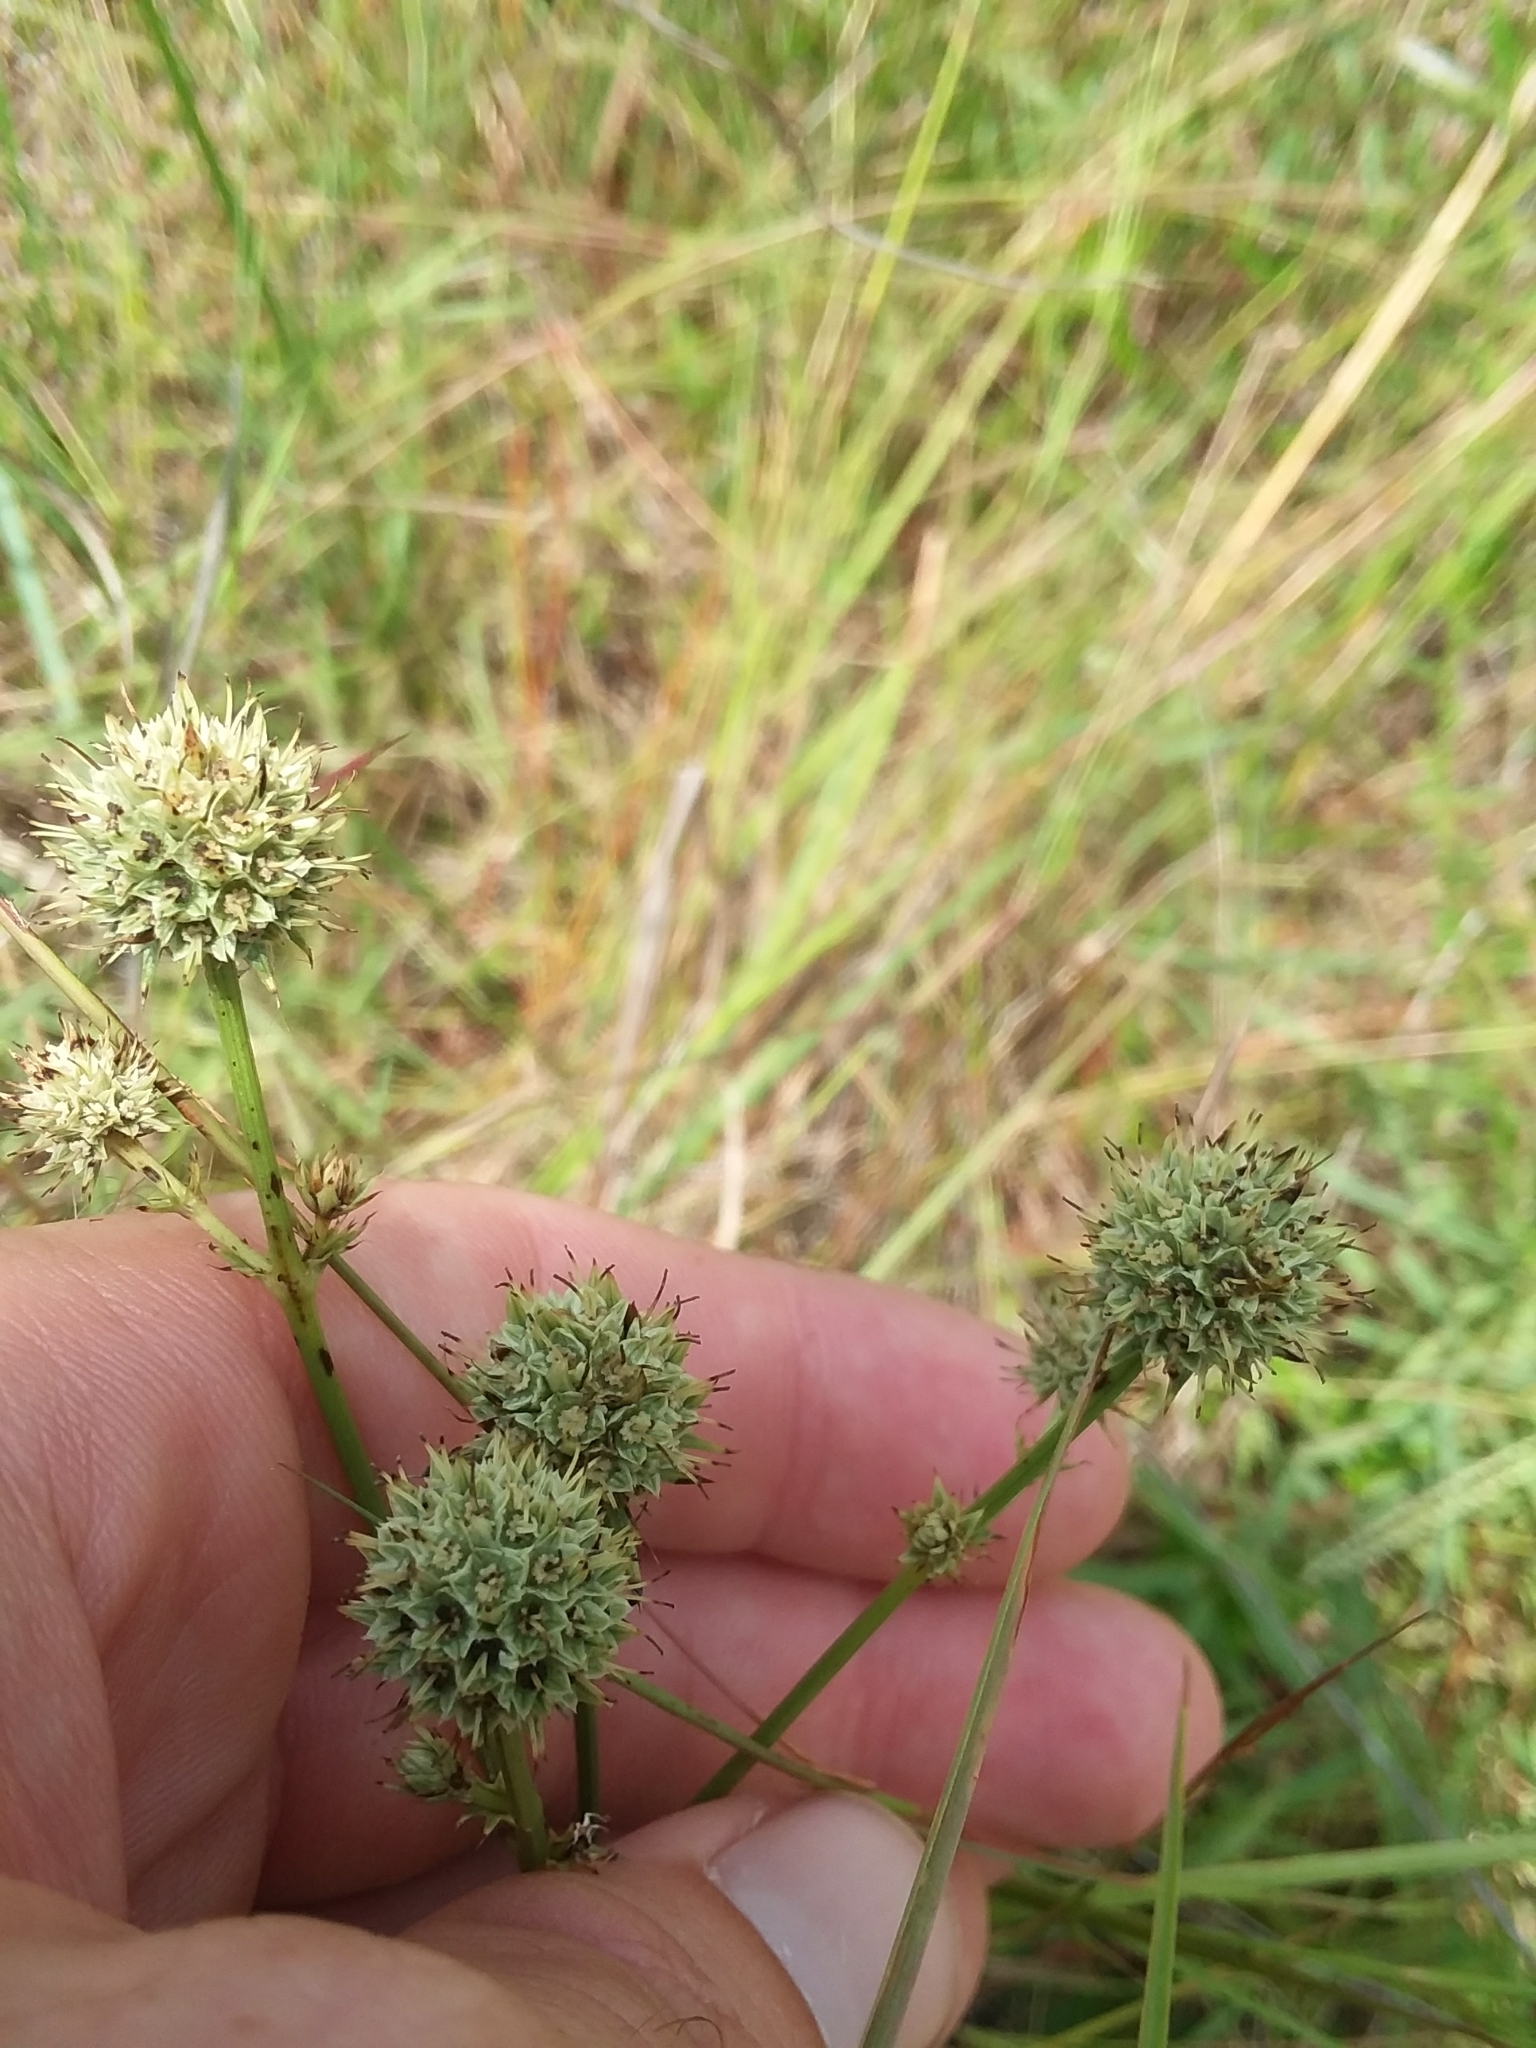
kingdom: Plantae
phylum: Tracheophyta
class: Magnoliopsida
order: Apiales
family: Apiaceae
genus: Eryngium
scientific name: Eryngium yuccifolium
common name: Button eryngo
